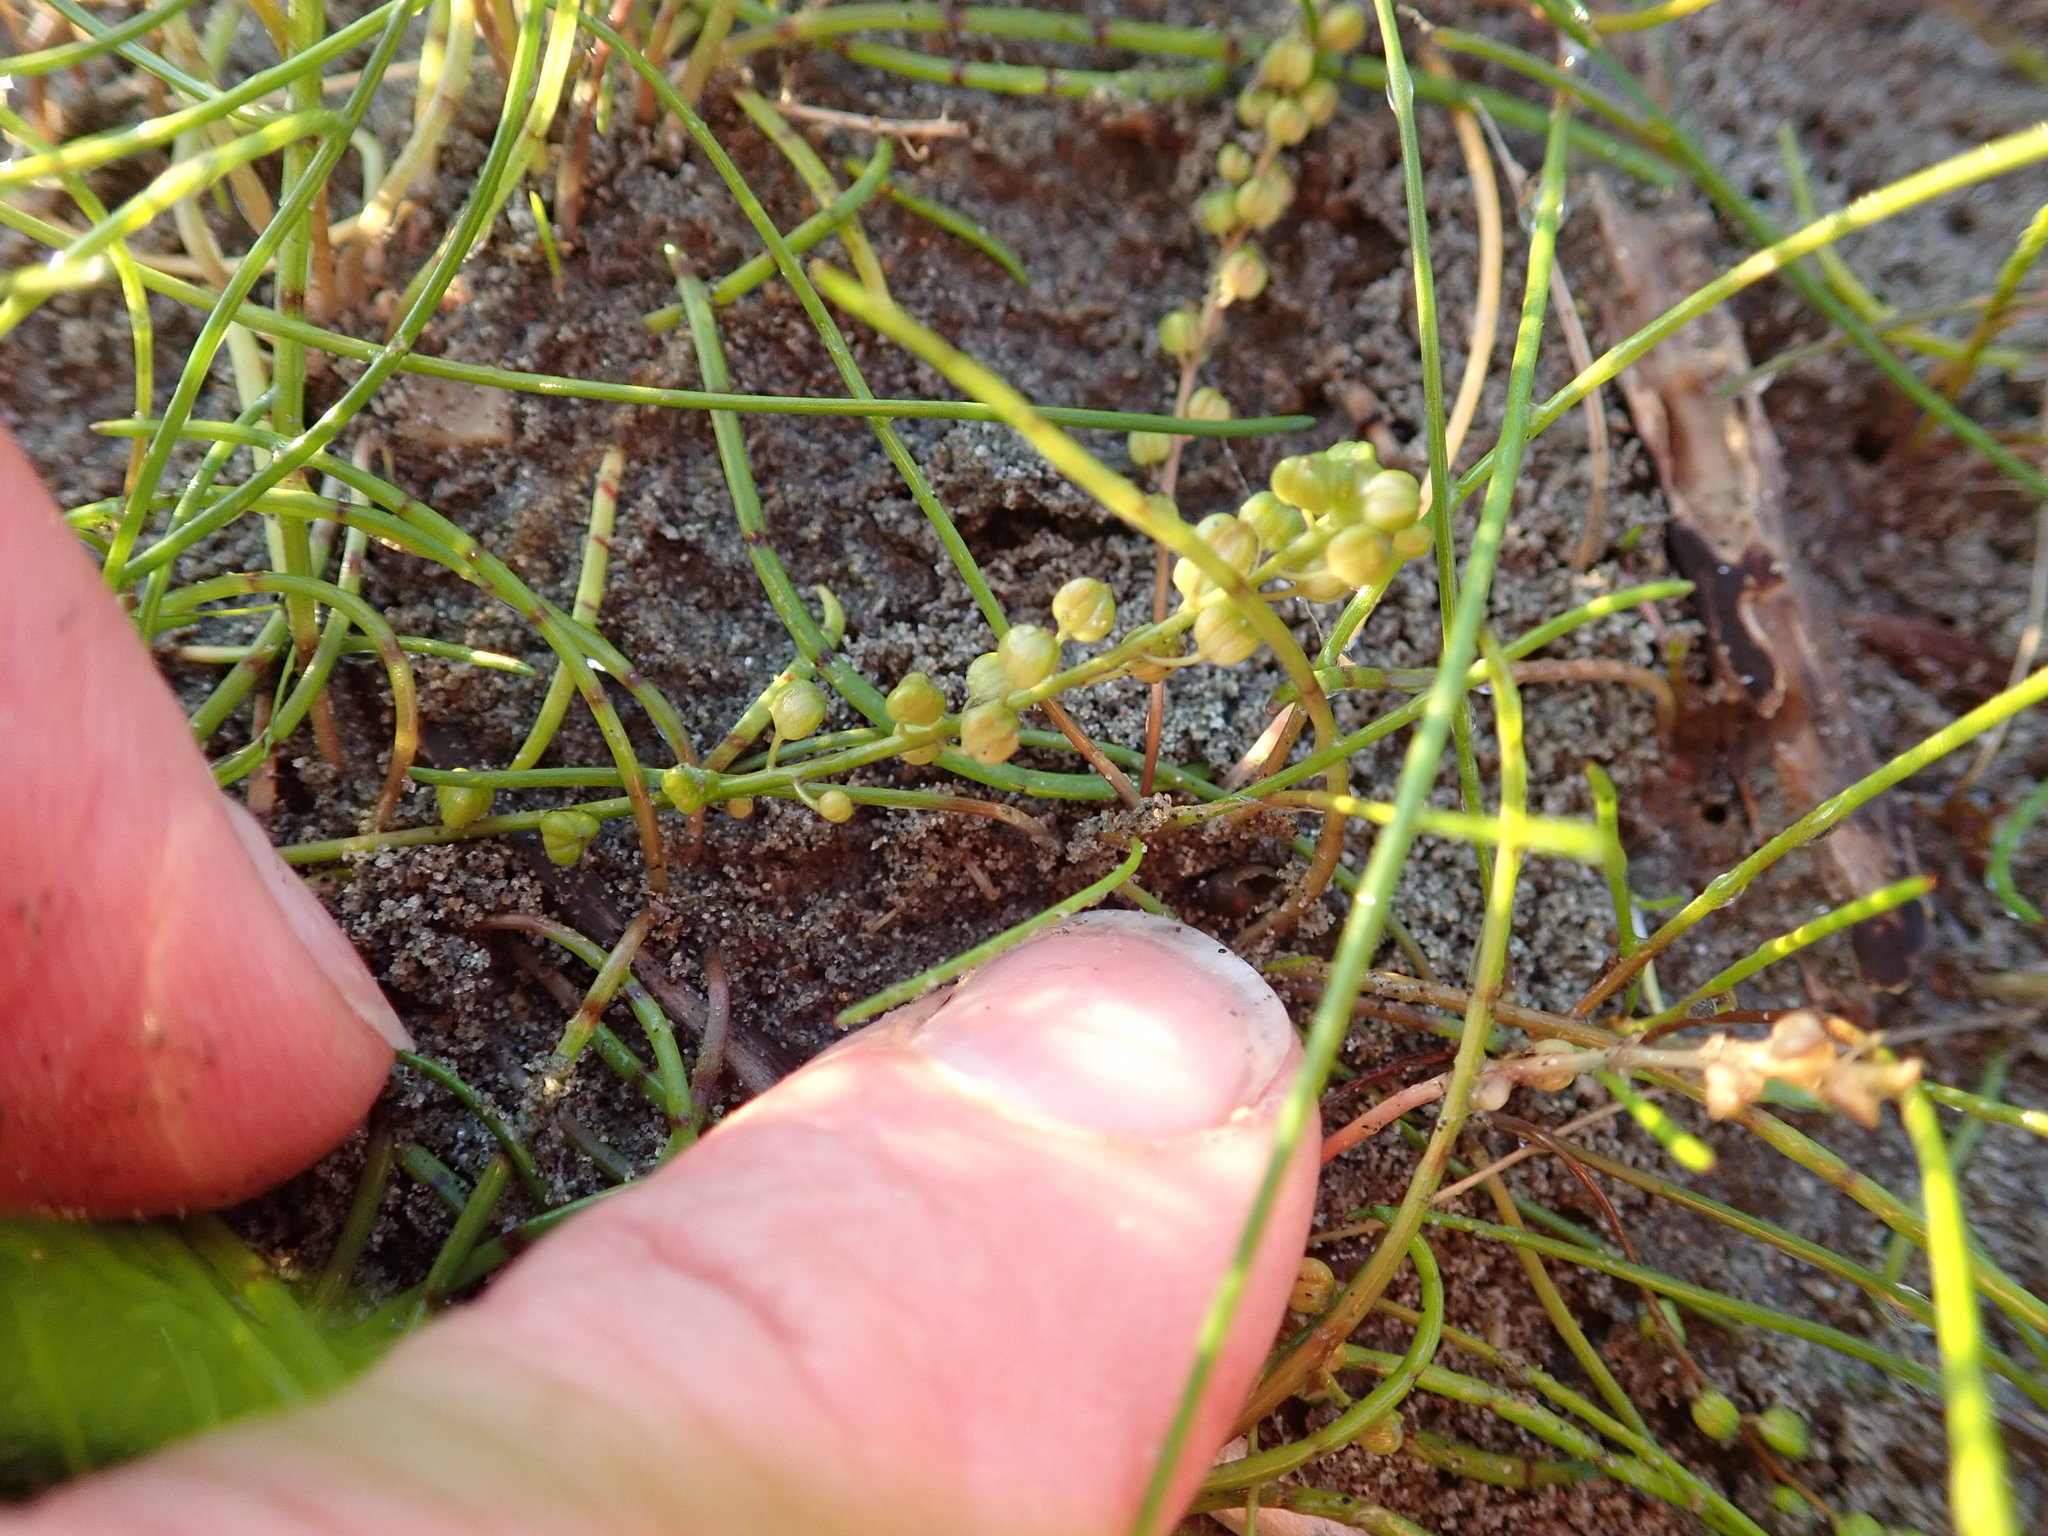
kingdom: Plantae
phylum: Tracheophyta
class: Liliopsida
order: Alismatales
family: Juncaginaceae
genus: Triglochin
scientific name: Triglochin striata
